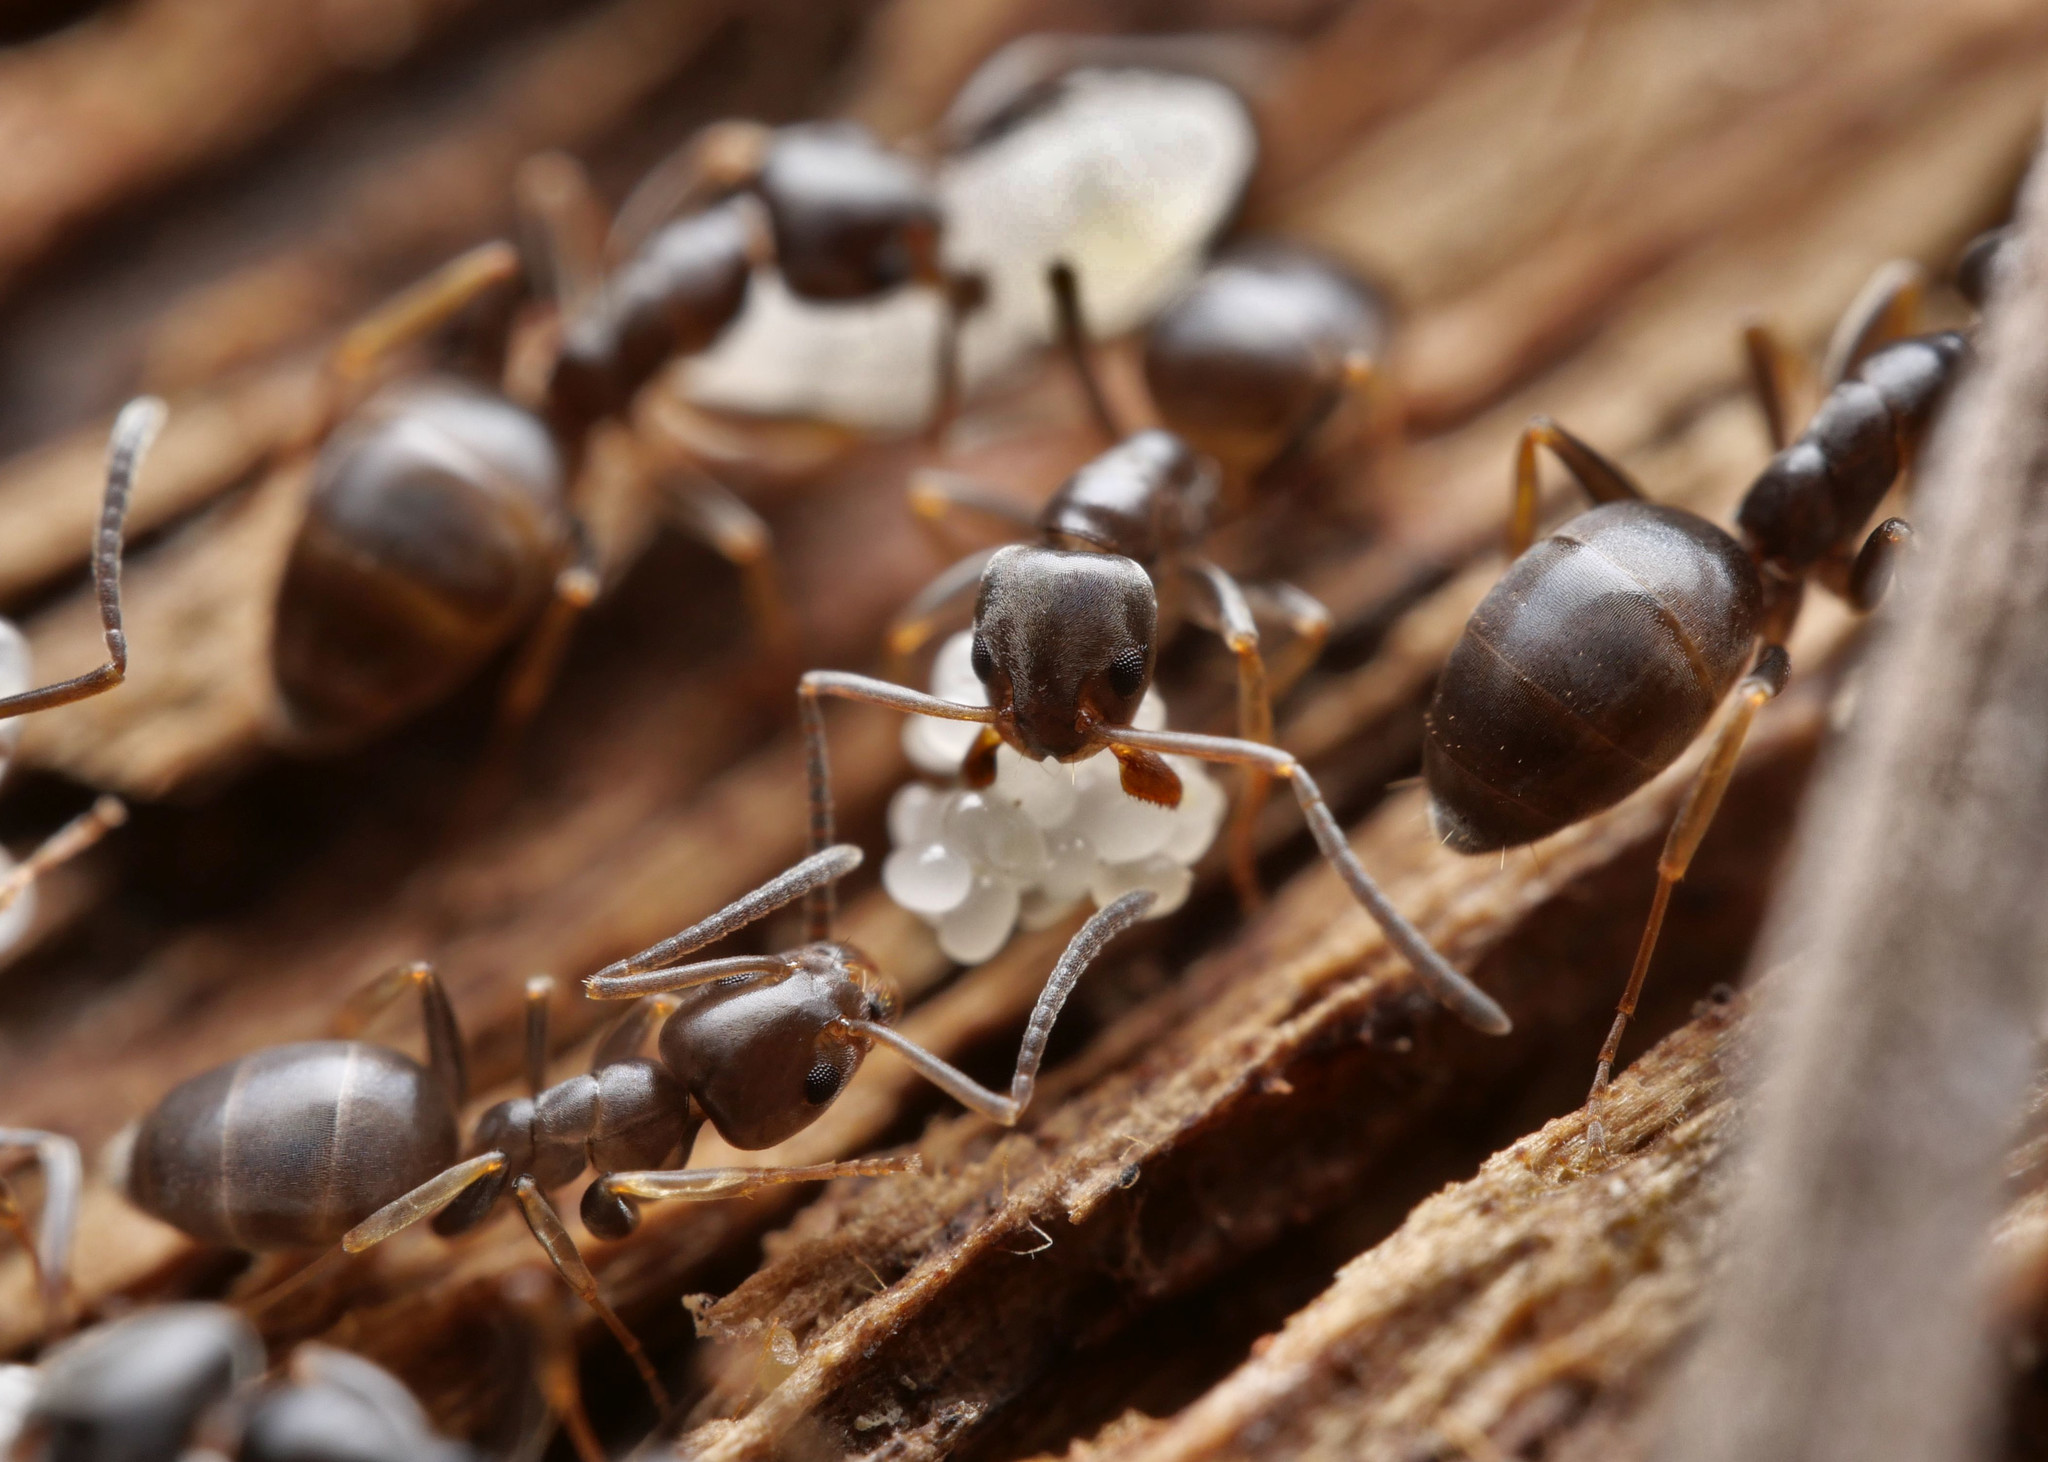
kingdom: Animalia
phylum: Arthropoda
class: Insecta
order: Hymenoptera
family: Formicidae
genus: Tapinoma
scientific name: Tapinoma erraticum
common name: Erratic ant
